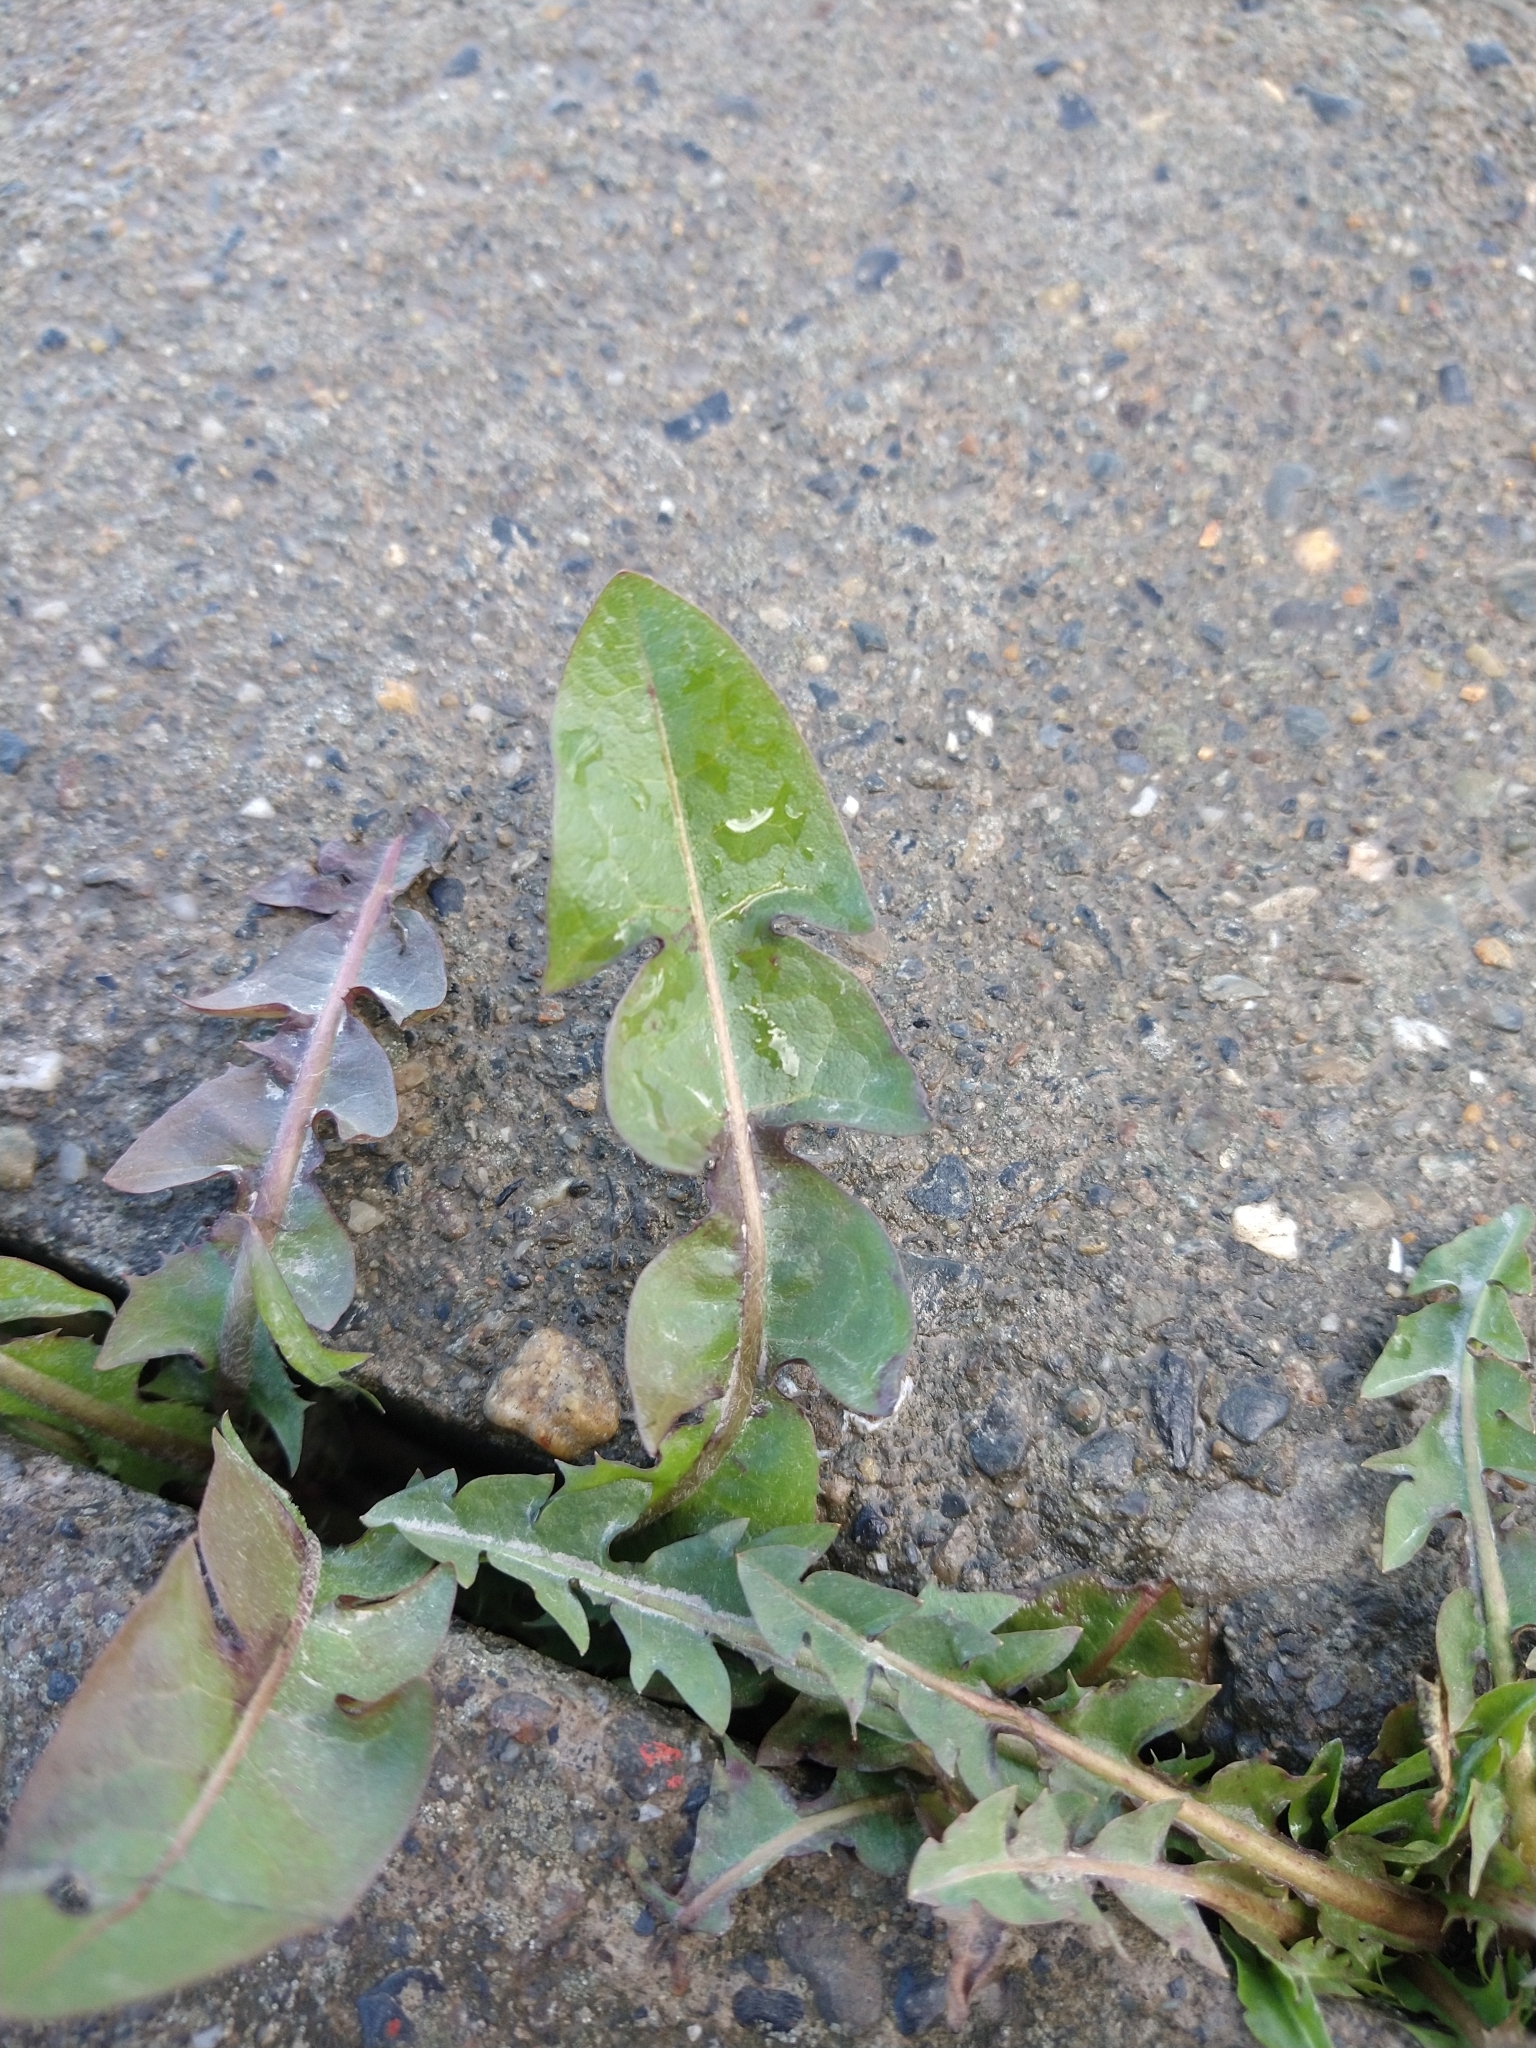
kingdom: Plantae
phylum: Tracheophyta
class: Magnoliopsida
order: Asterales
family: Asteraceae
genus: Taraxacum
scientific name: Taraxacum officinale
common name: Common dandelion
